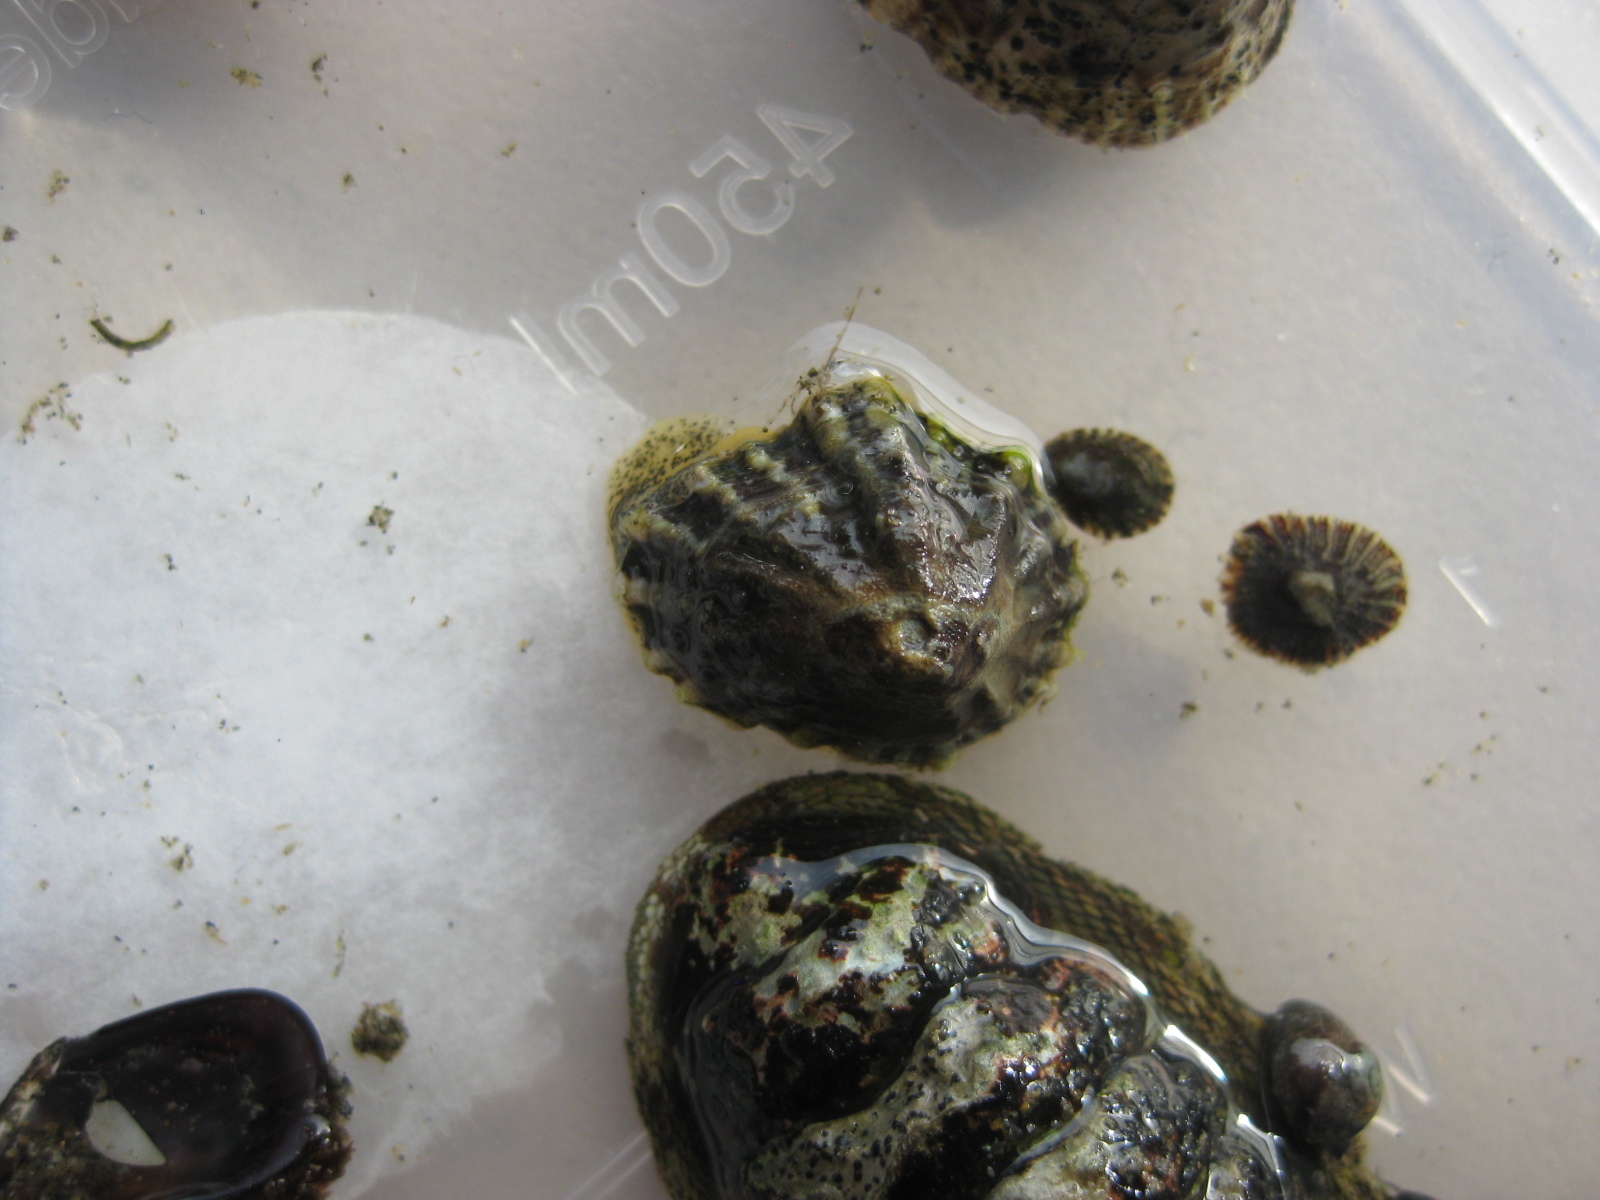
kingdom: Animalia
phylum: Mollusca
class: Gastropoda
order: Siphonariida
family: Siphonariidae
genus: Siphonaria
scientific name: Siphonaria australis
